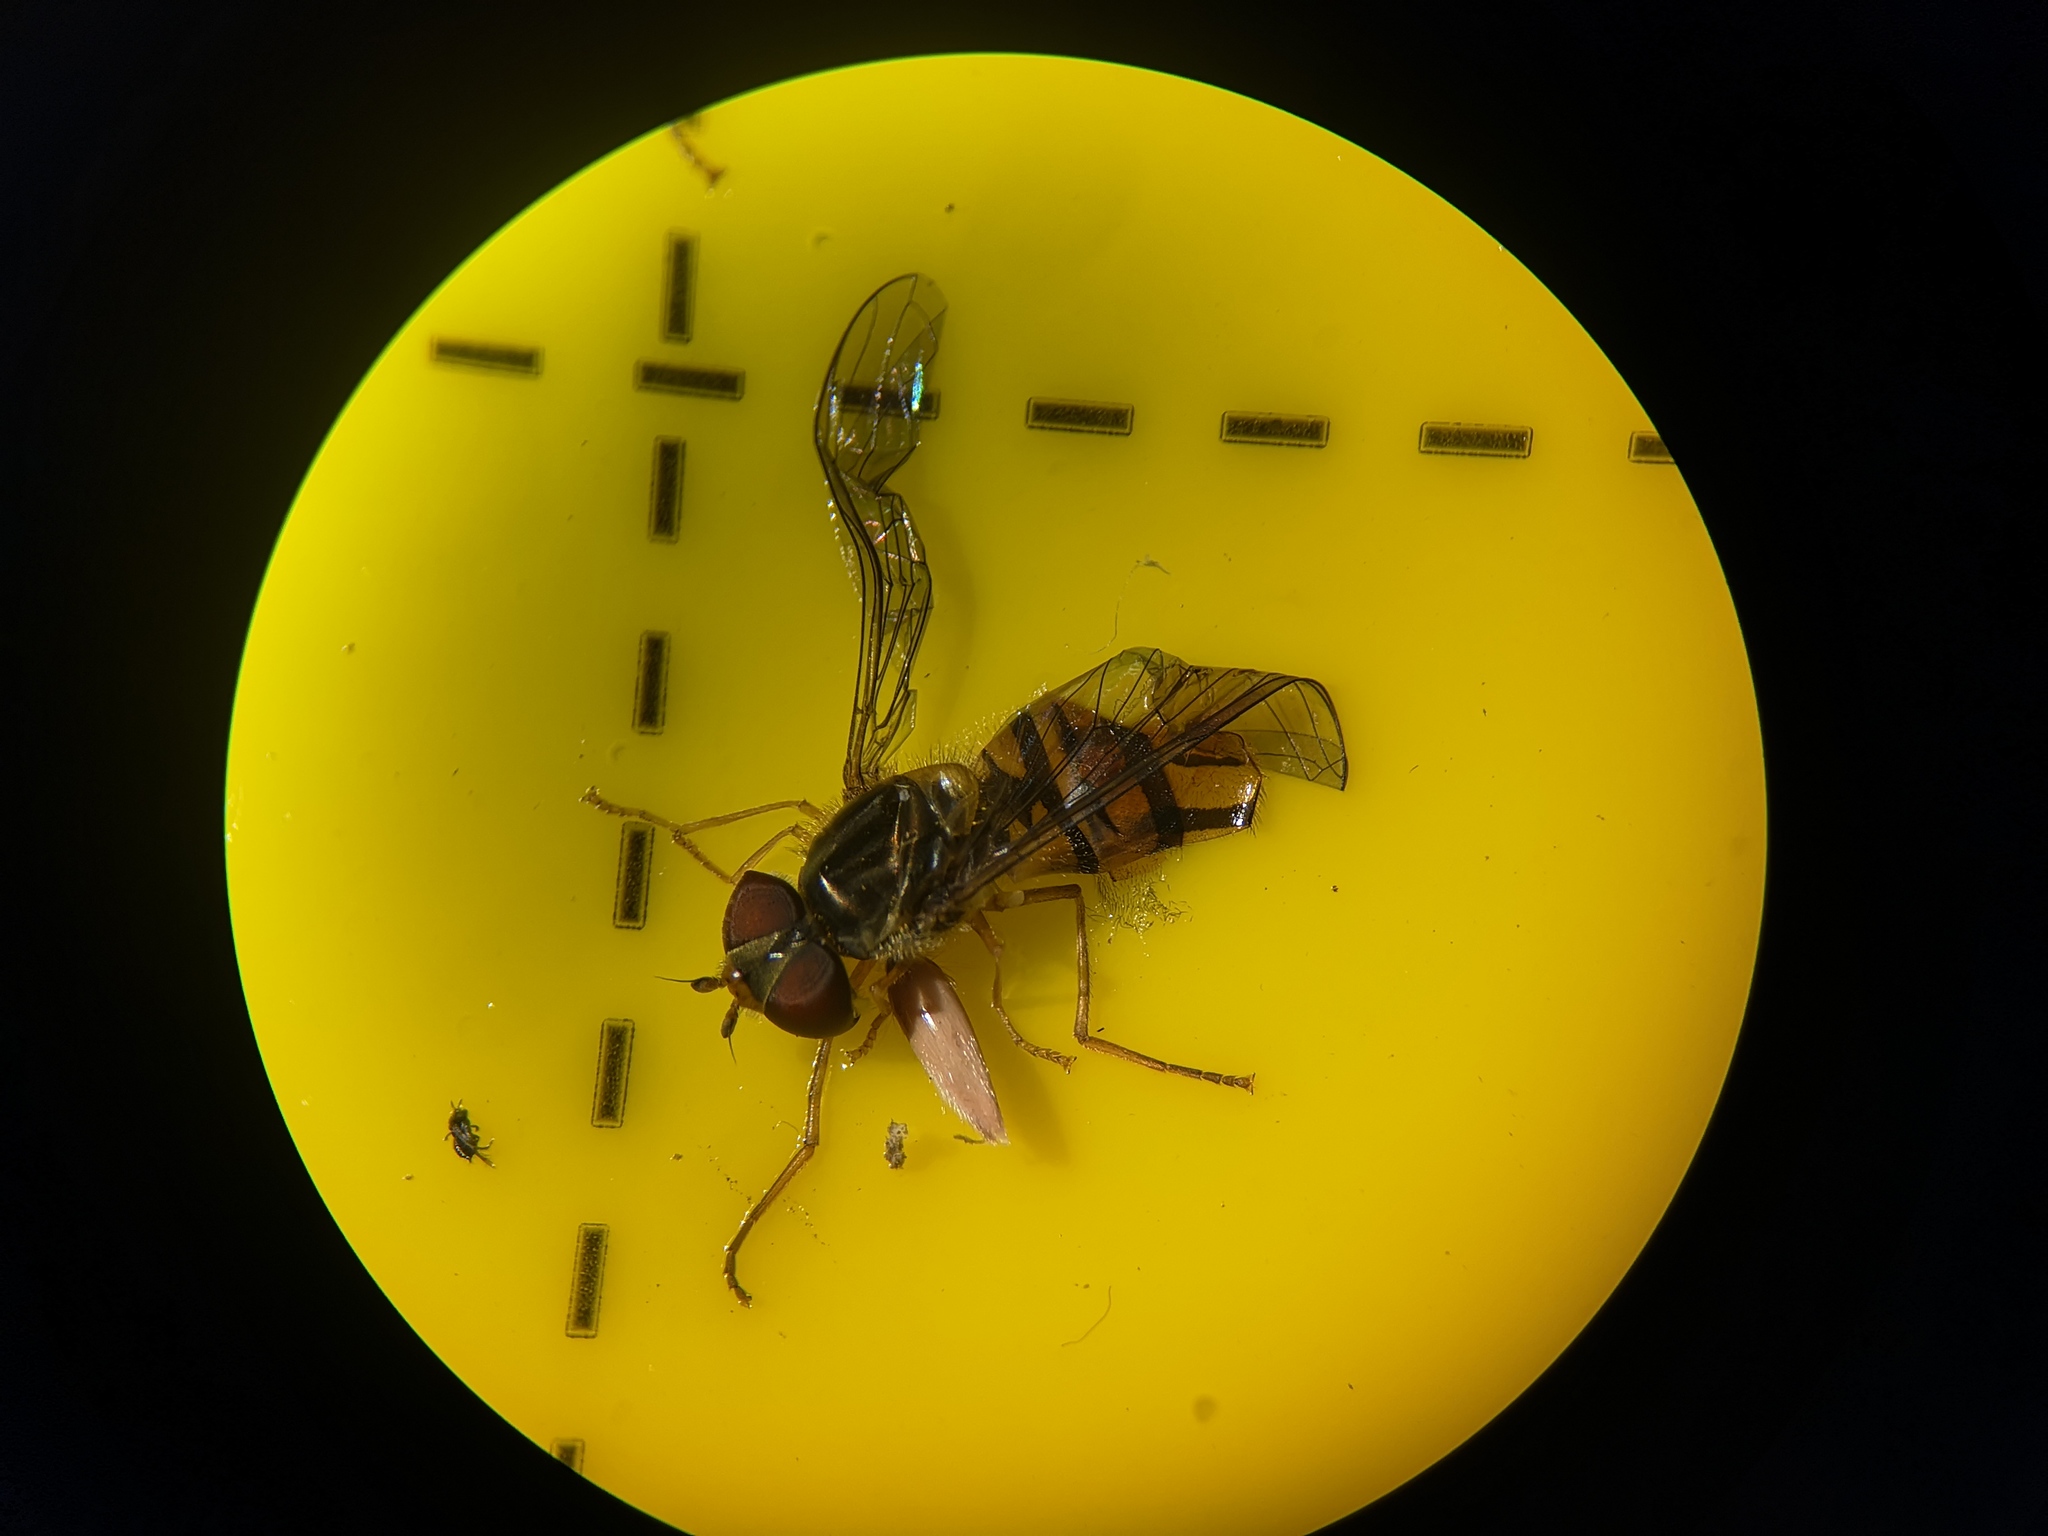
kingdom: Animalia
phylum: Arthropoda
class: Insecta
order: Diptera
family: Syrphidae
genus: Episyrphus
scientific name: Episyrphus balteatus
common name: Marmalade hoverfly
